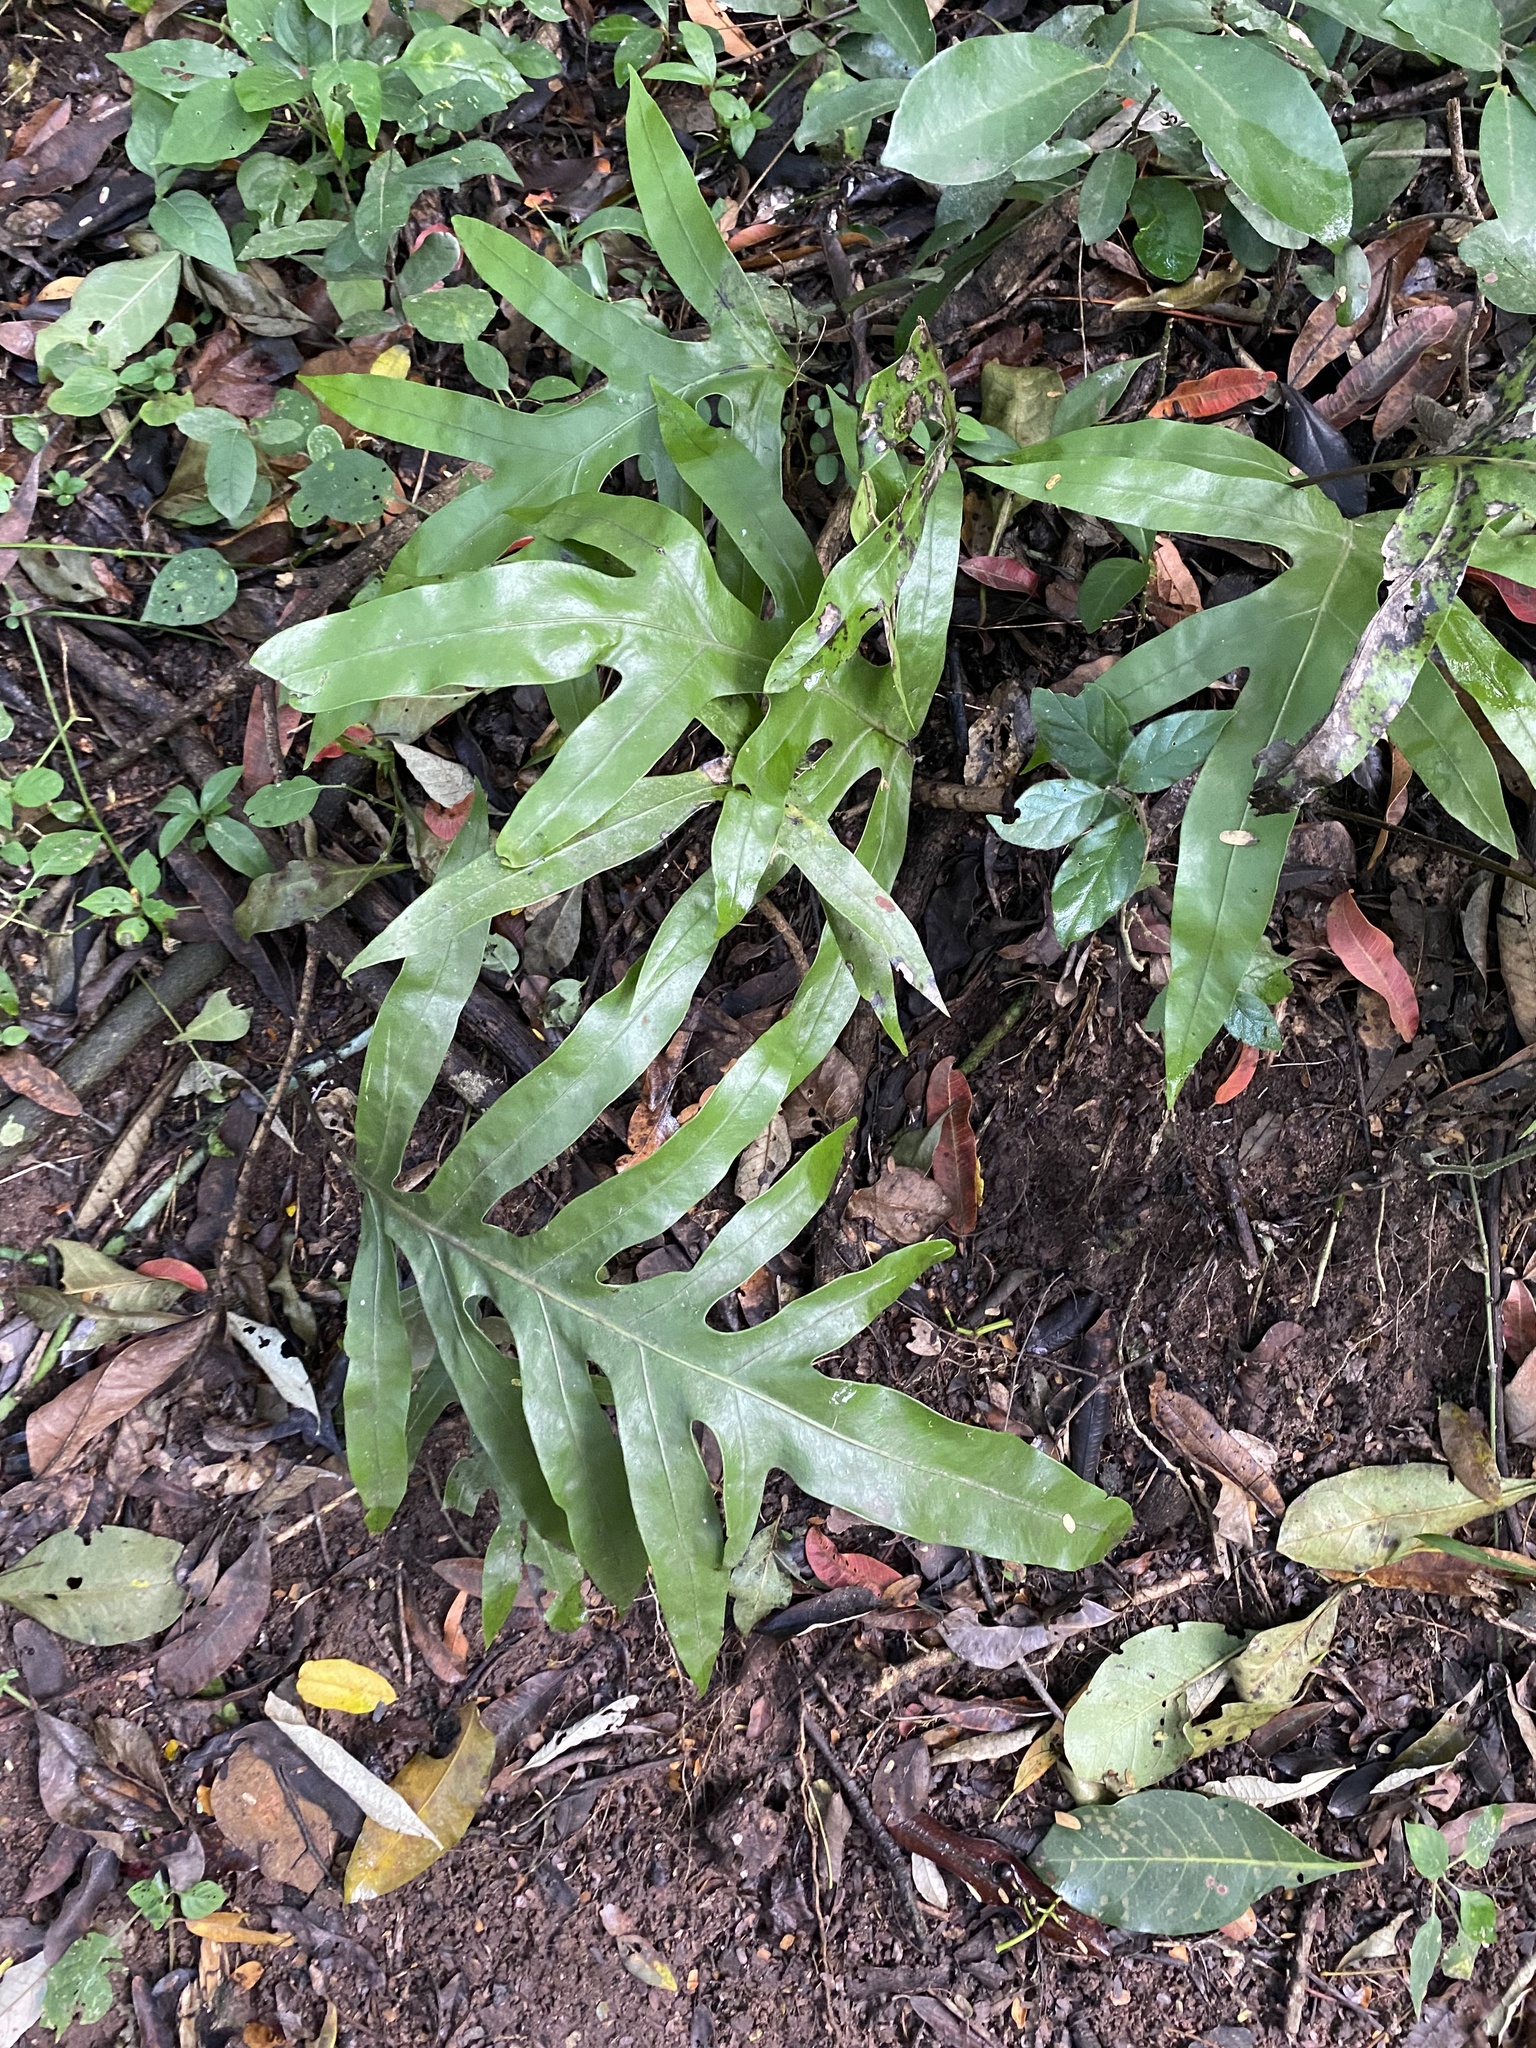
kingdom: Plantae
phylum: Tracheophyta
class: Polypodiopsida
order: Polypodiales
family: Polypodiaceae
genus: Microsorum
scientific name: Microsorum scolopendria
